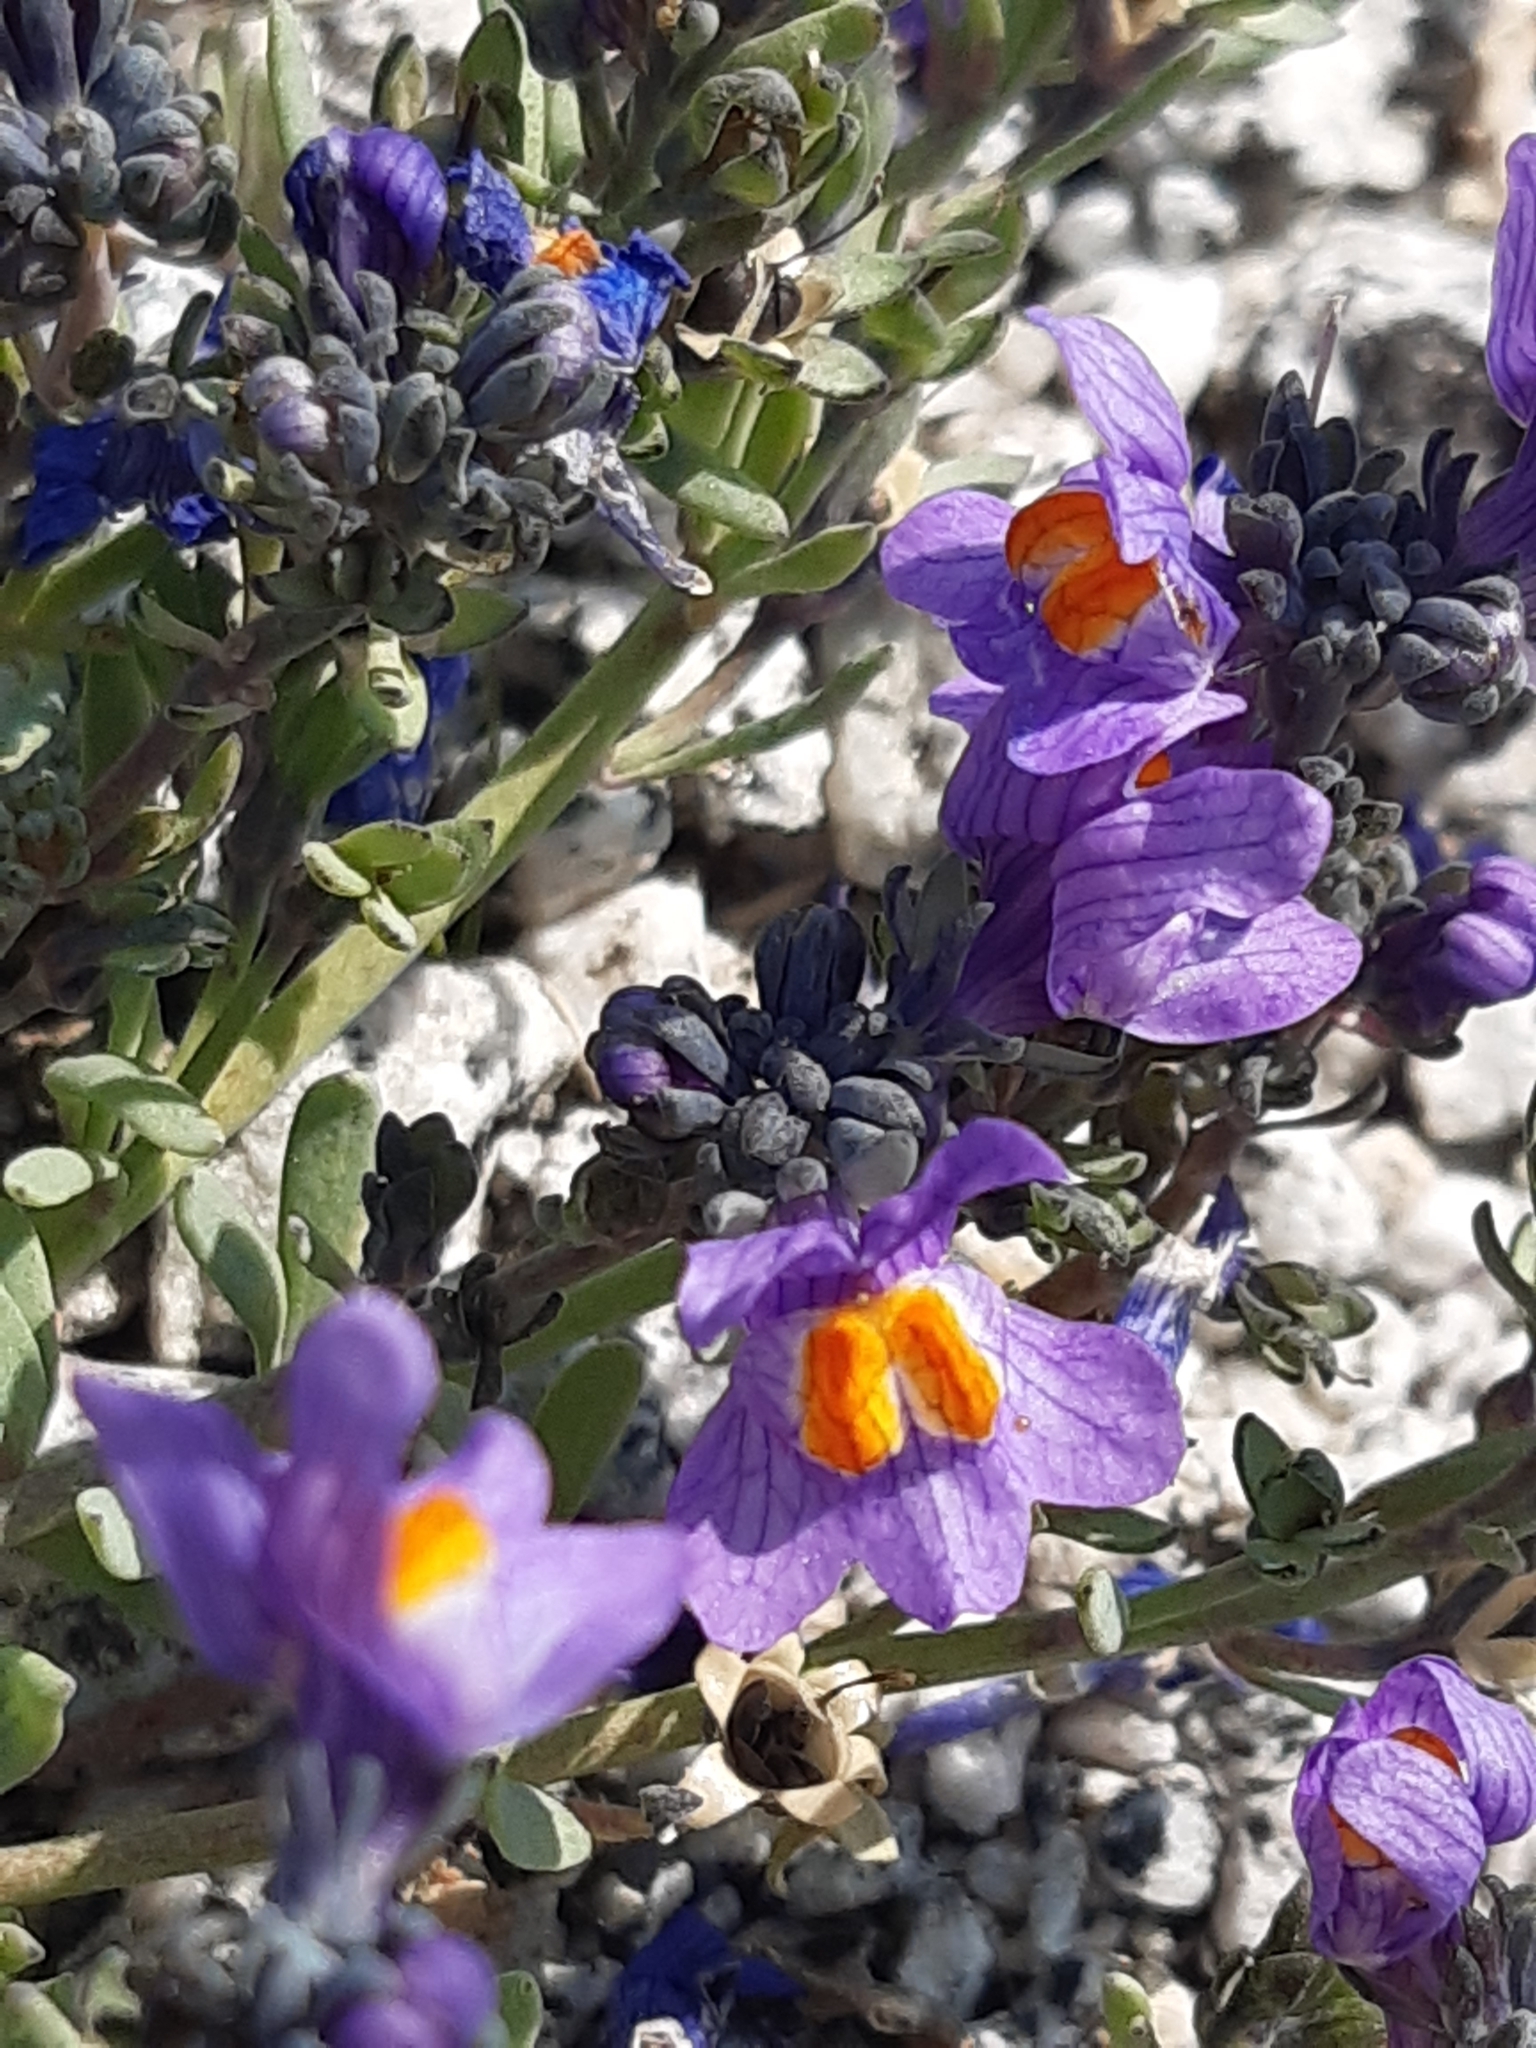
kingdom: Plantae
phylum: Tracheophyta
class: Magnoliopsida
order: Lamiales
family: Plantaginaceae
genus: Linaria
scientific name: Linaria alpina
